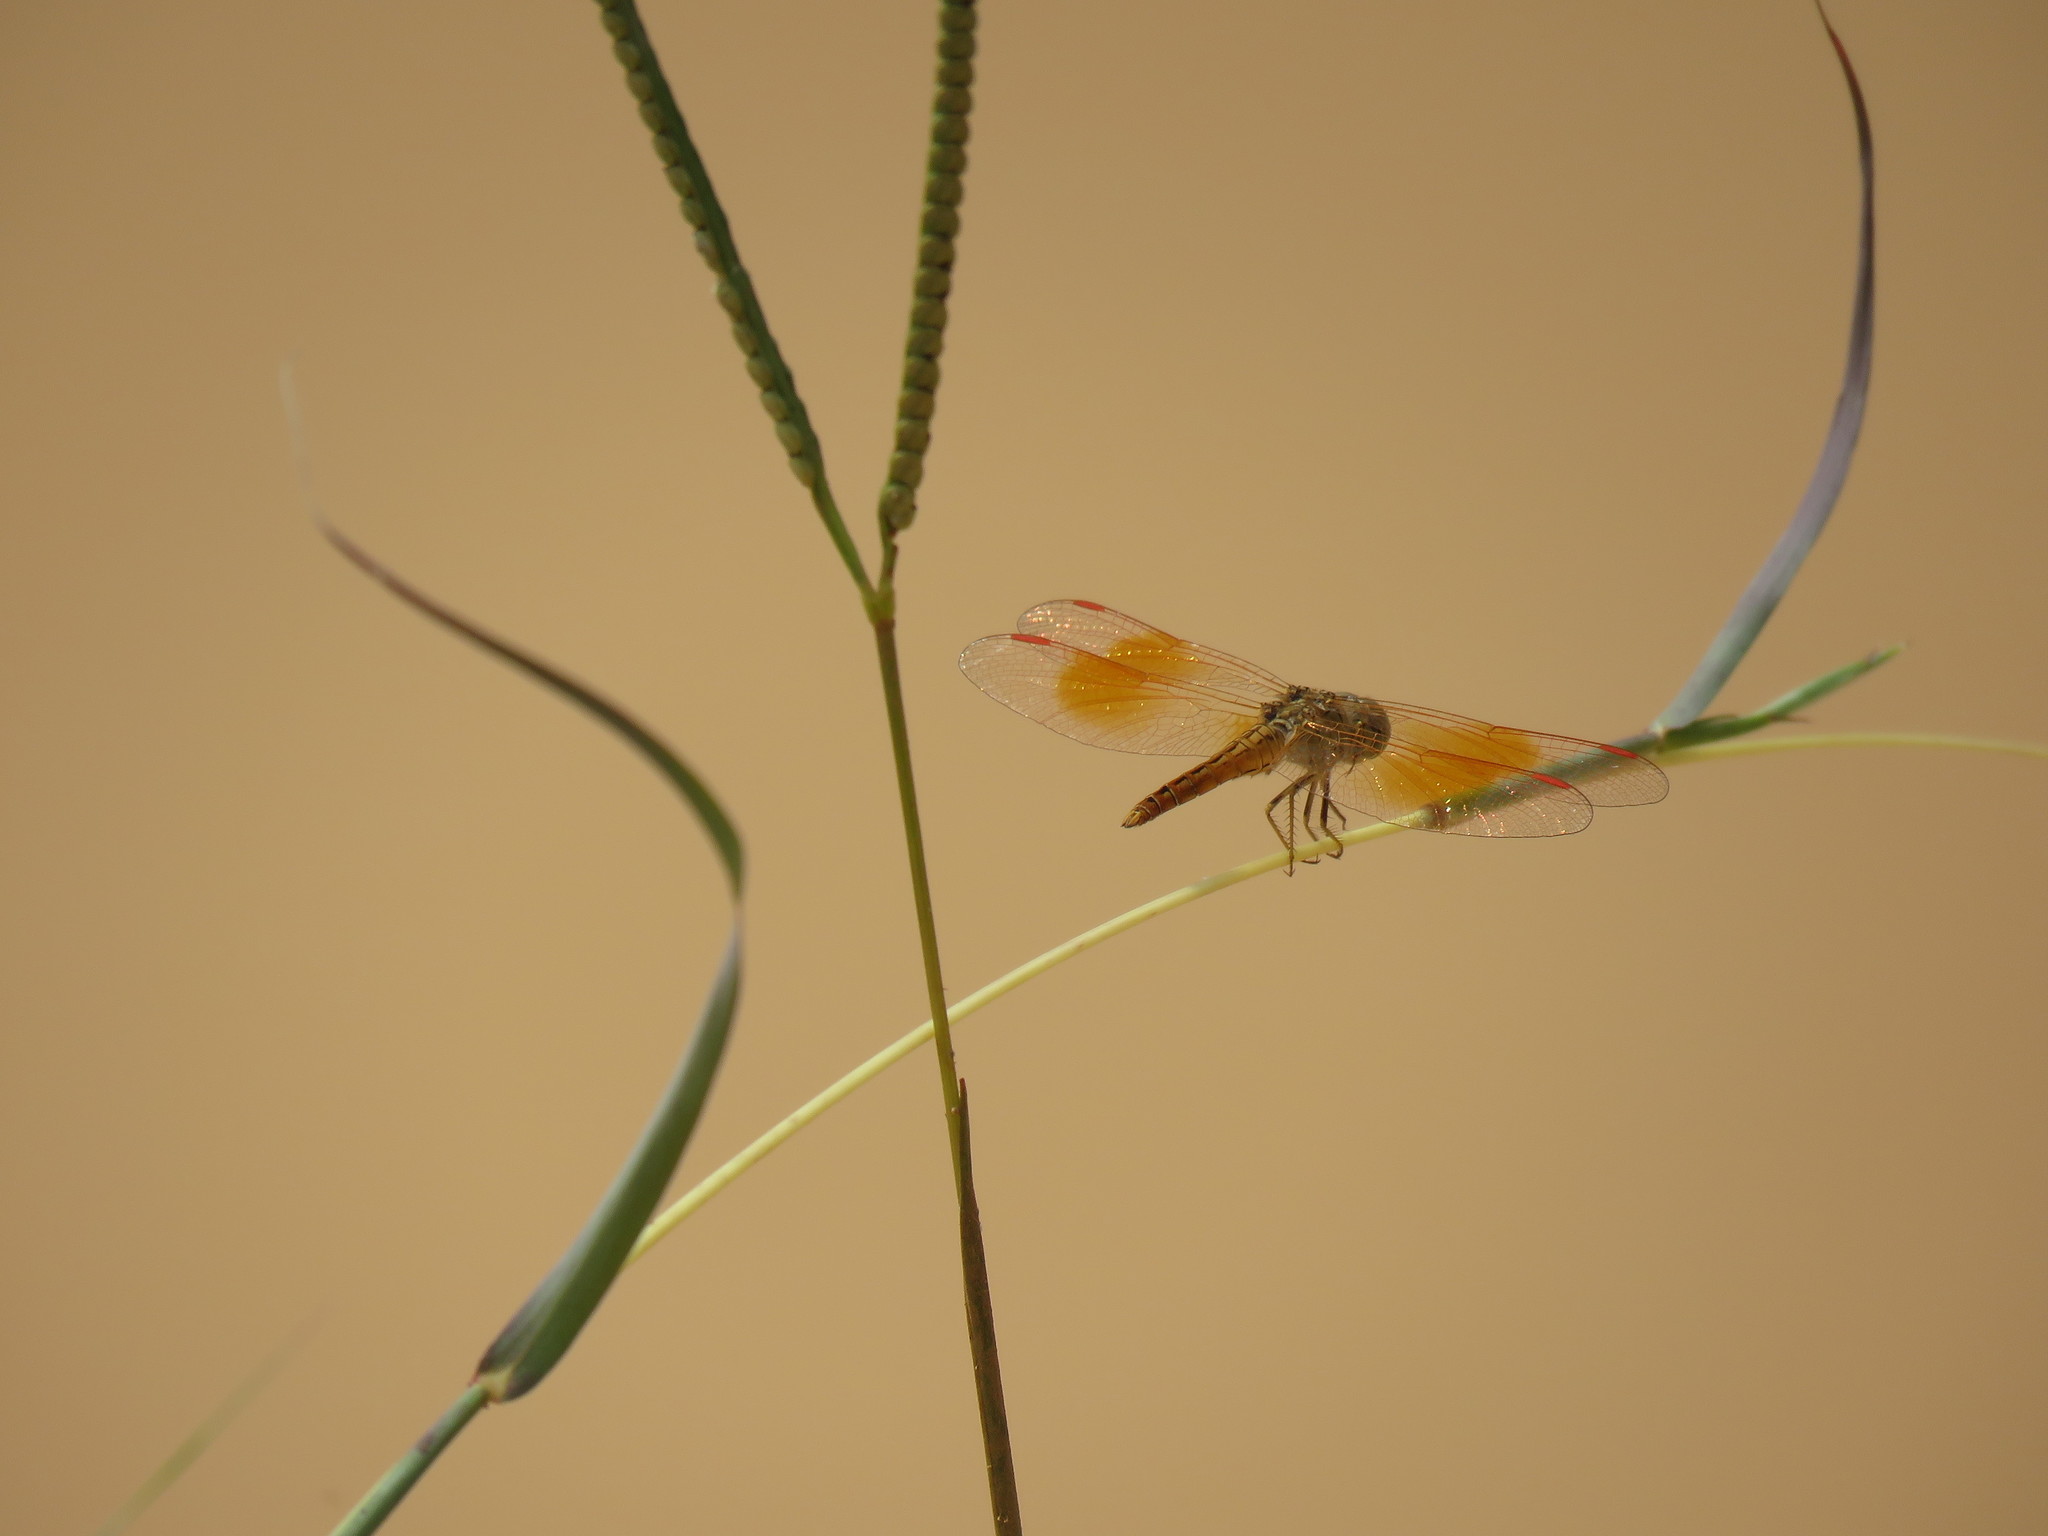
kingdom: Animalia
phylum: Arthropoda
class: Insecta
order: Odonata
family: Libellulidae
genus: Brachythemis
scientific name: Brachythemis contaminata
